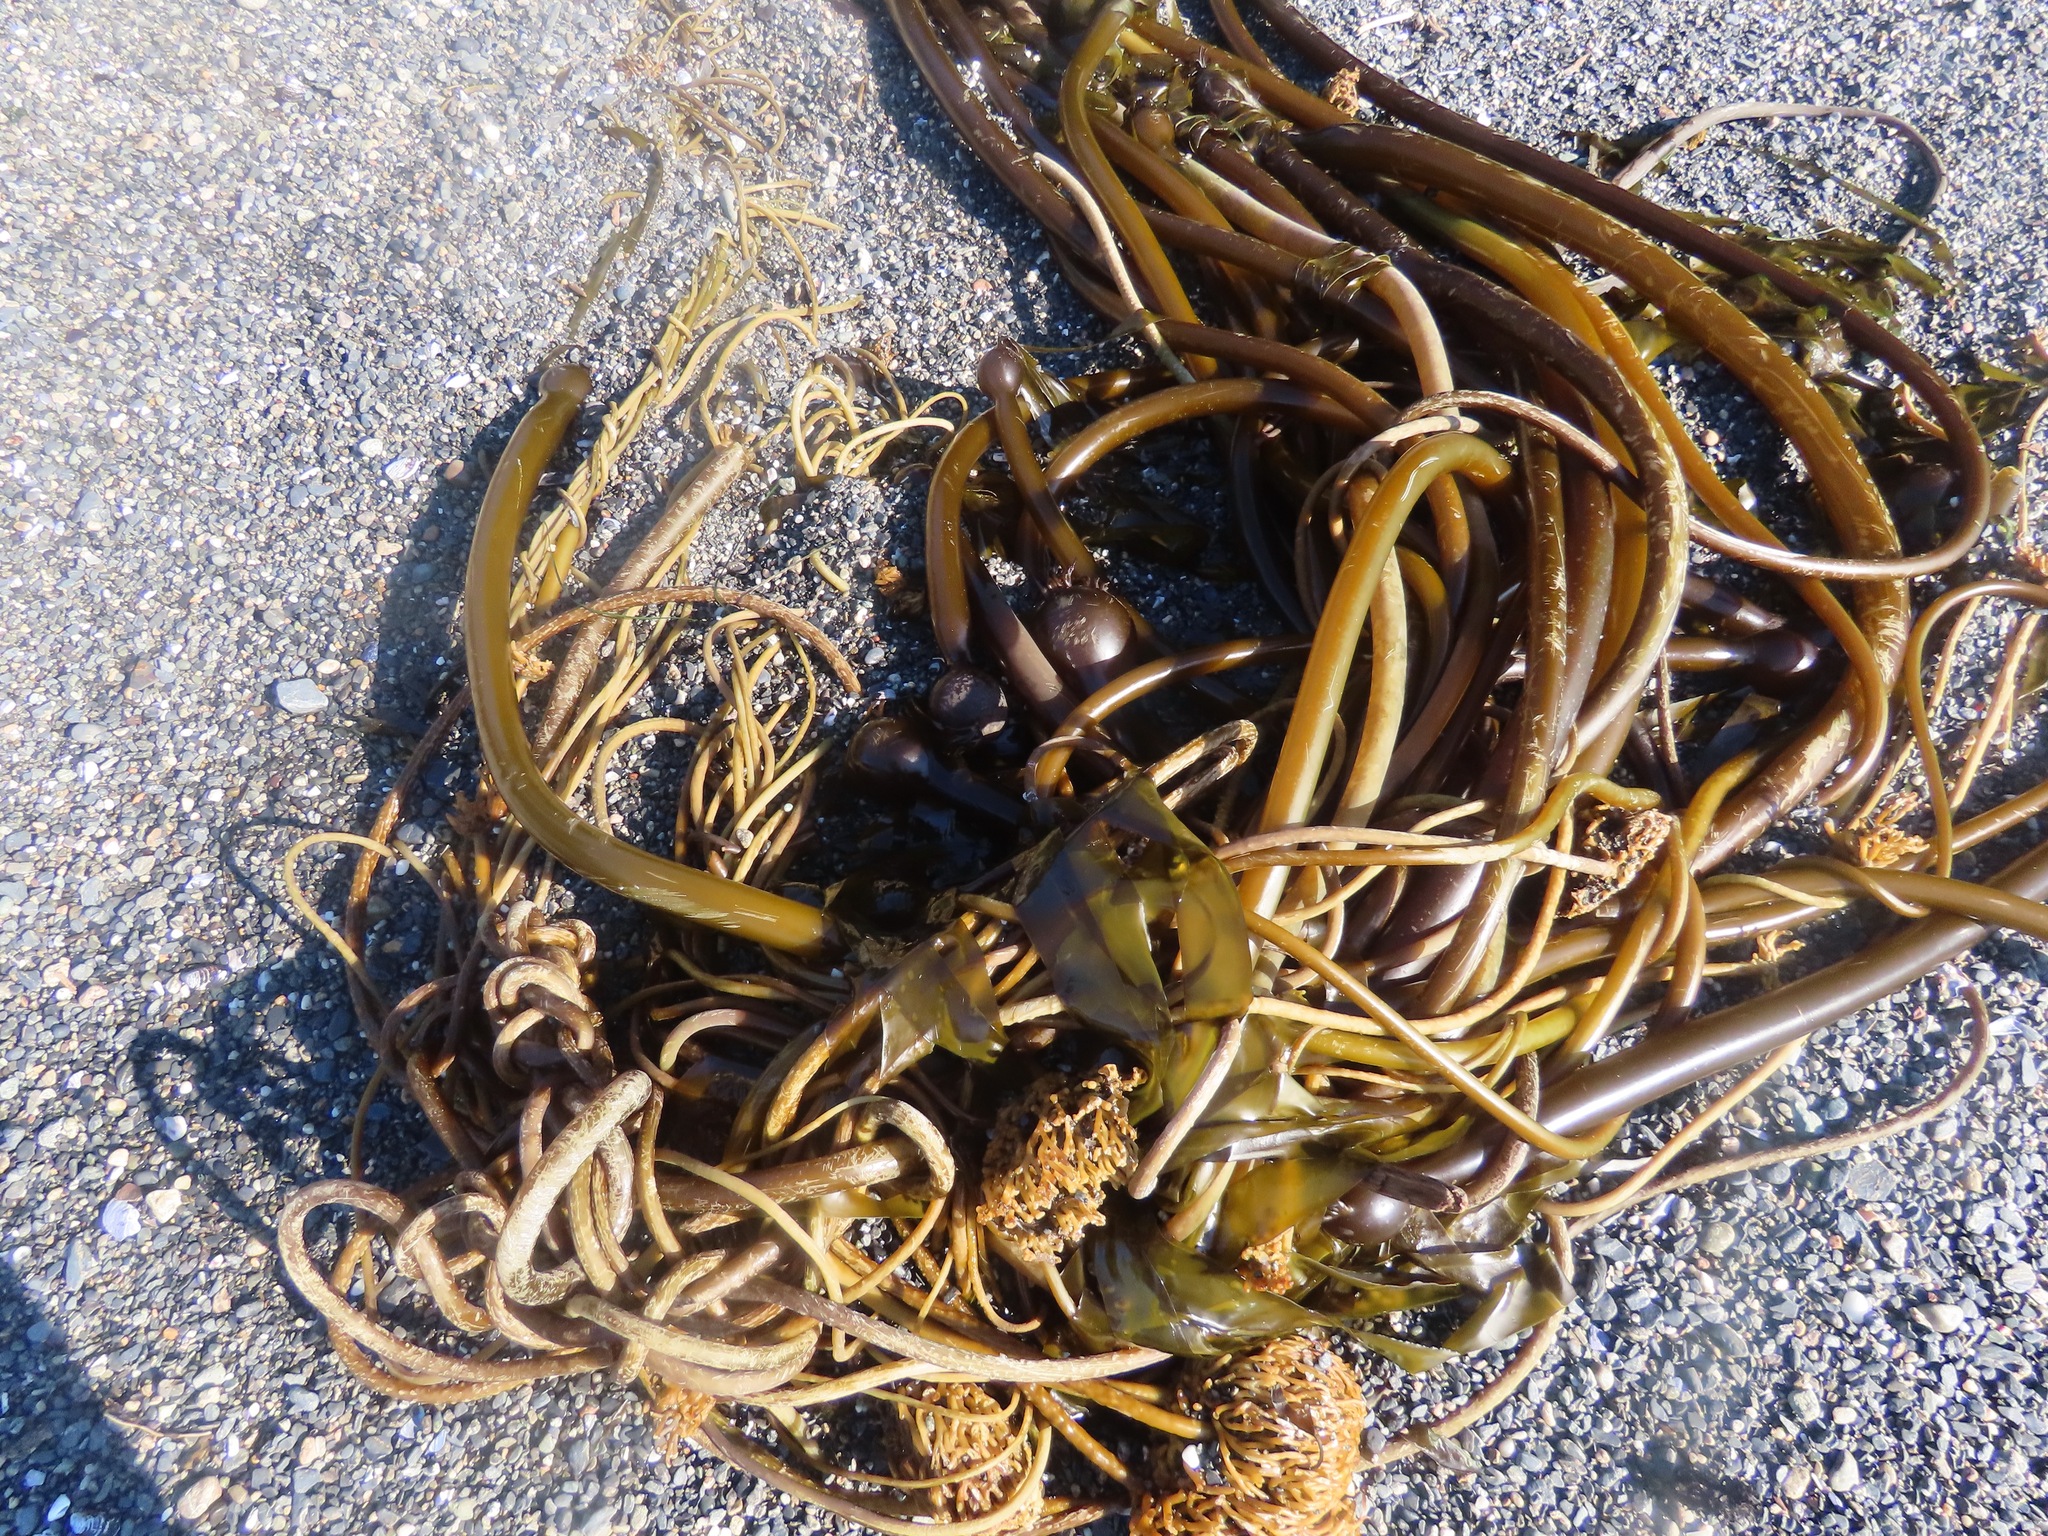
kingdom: Chromista
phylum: Ochrophyta
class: Phaeophyceae
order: Laminariales
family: Laminariaceae
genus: Nereocystis
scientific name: Nereocystis luetkeana
